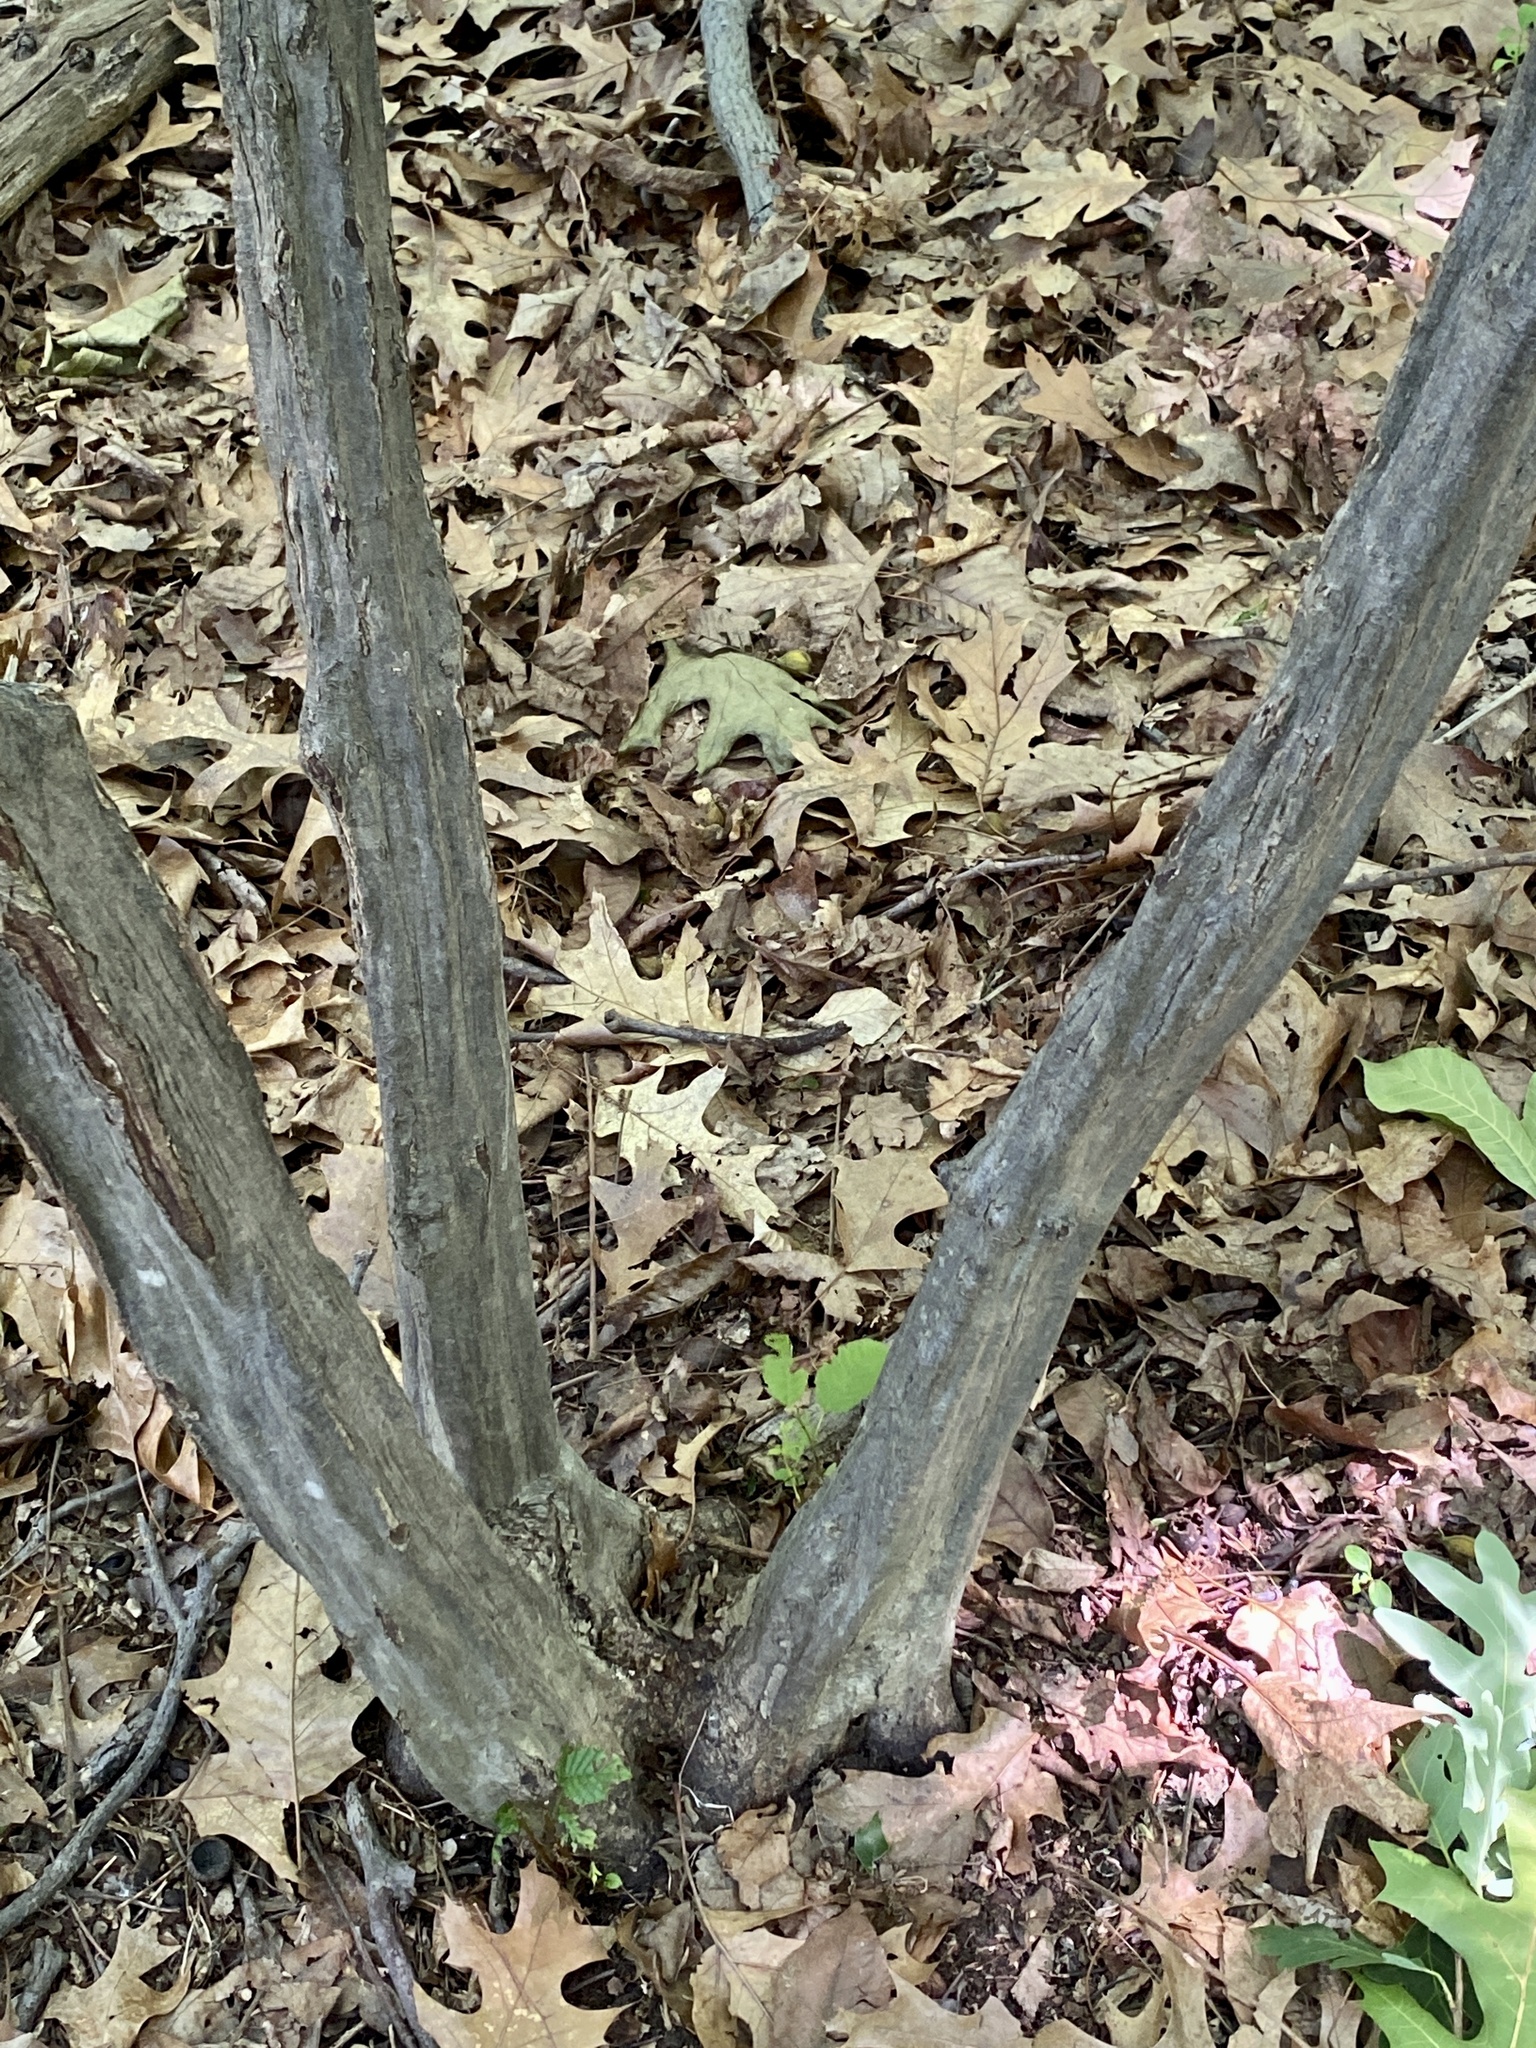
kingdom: Plantae
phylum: Tracheophyta
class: Magnoliopsida
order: Fagales
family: Betulaceae
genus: Carpinus
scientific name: Carpinus caroliniana
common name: American hornbeam
